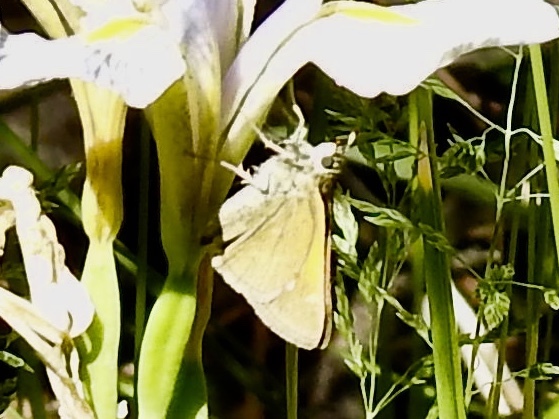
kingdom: Animalia
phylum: Arthropoda
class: Insecta
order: Lepidoptera
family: Hesperiidae
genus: Polites
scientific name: Polites themistocles
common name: Tawny-edged skipper
